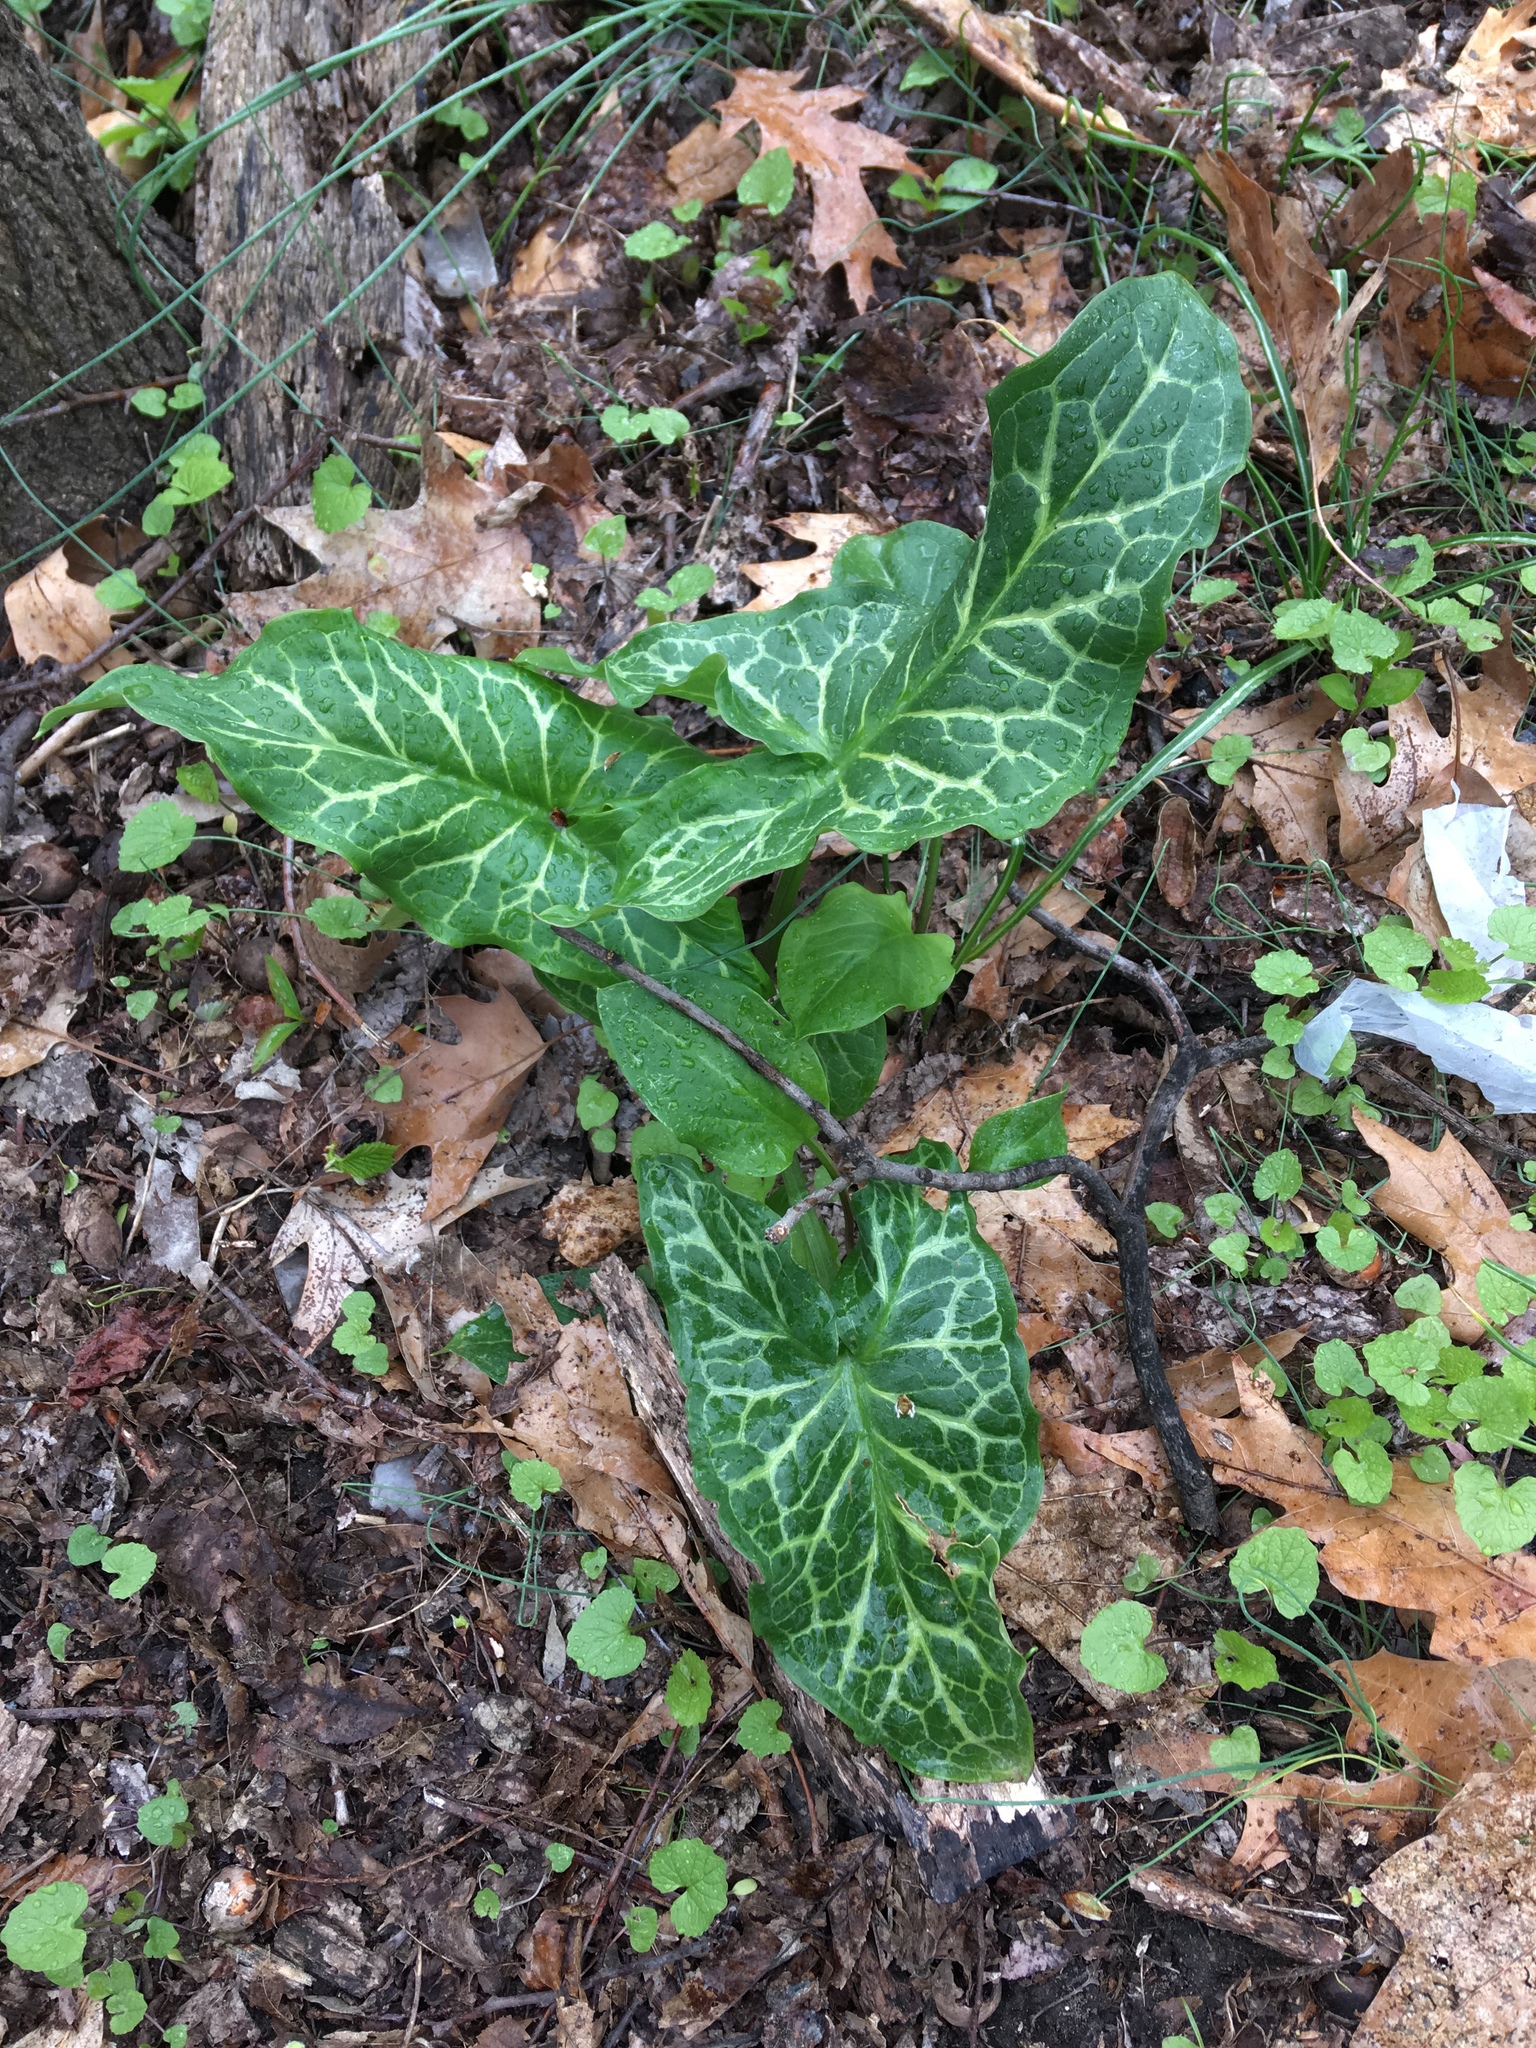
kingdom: Plantae
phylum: Tracheophyta
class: Liliopsida
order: Alismatales
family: Araceae
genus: Arum
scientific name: Arum italicum
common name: Italian lords-and-ladies
